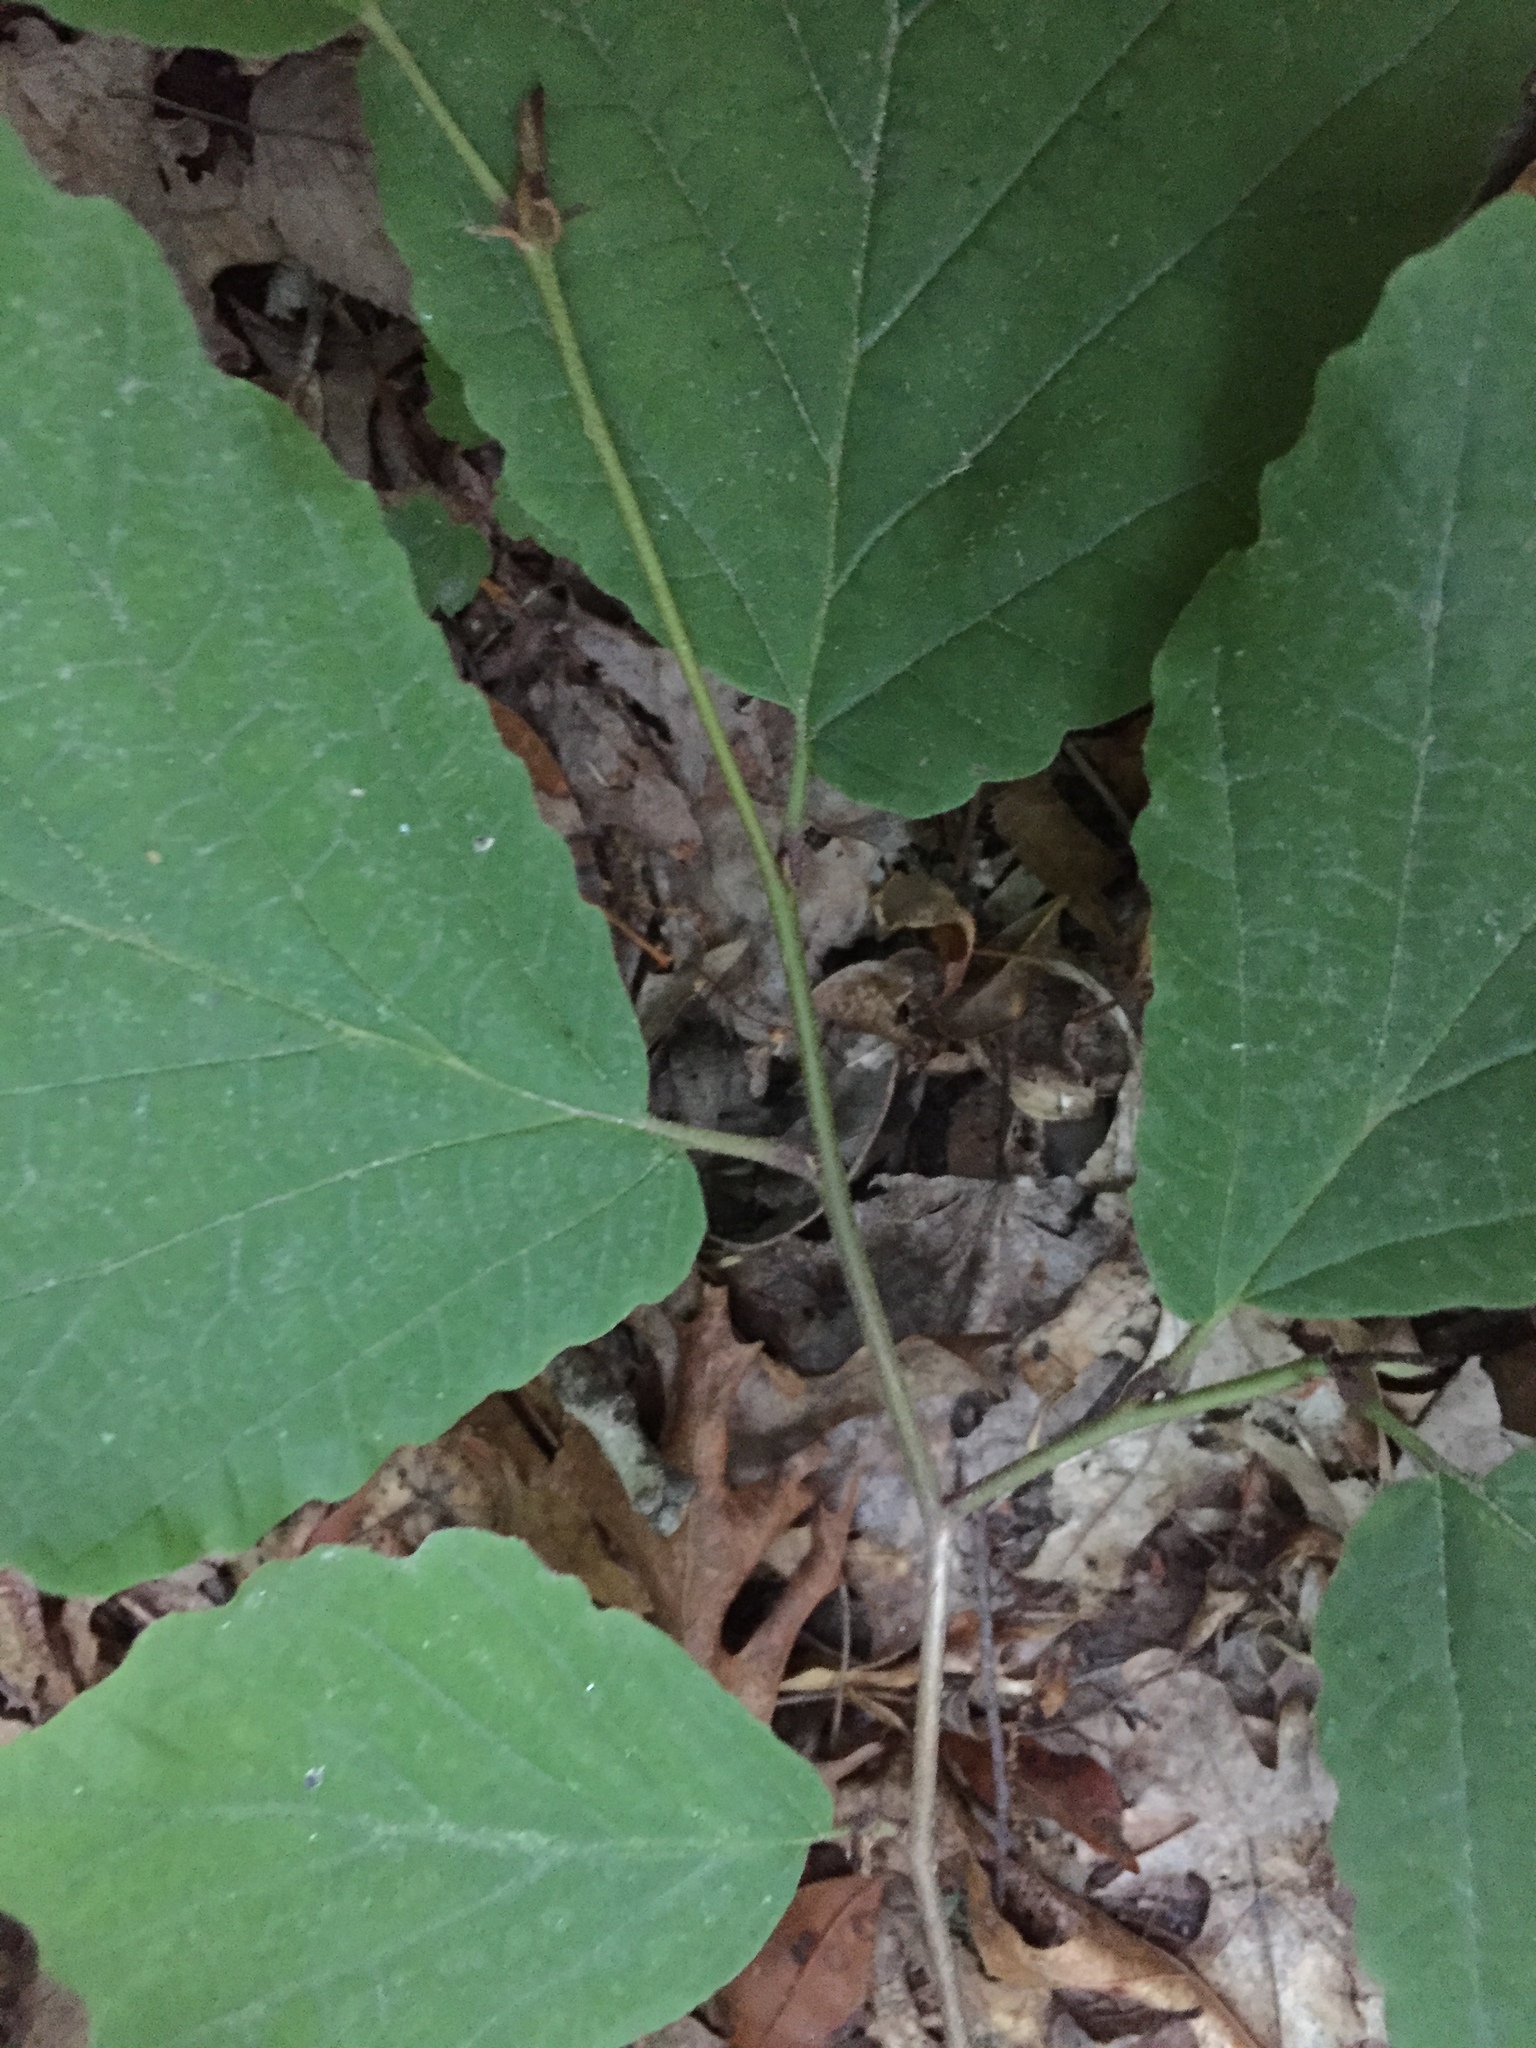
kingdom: Plantae
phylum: Tracheophyta
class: Magnoliopsida
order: Saxifragales
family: Hamamelidaceae
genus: Hamamelis
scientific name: Hamamelis virginiana
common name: Witch-hazel
